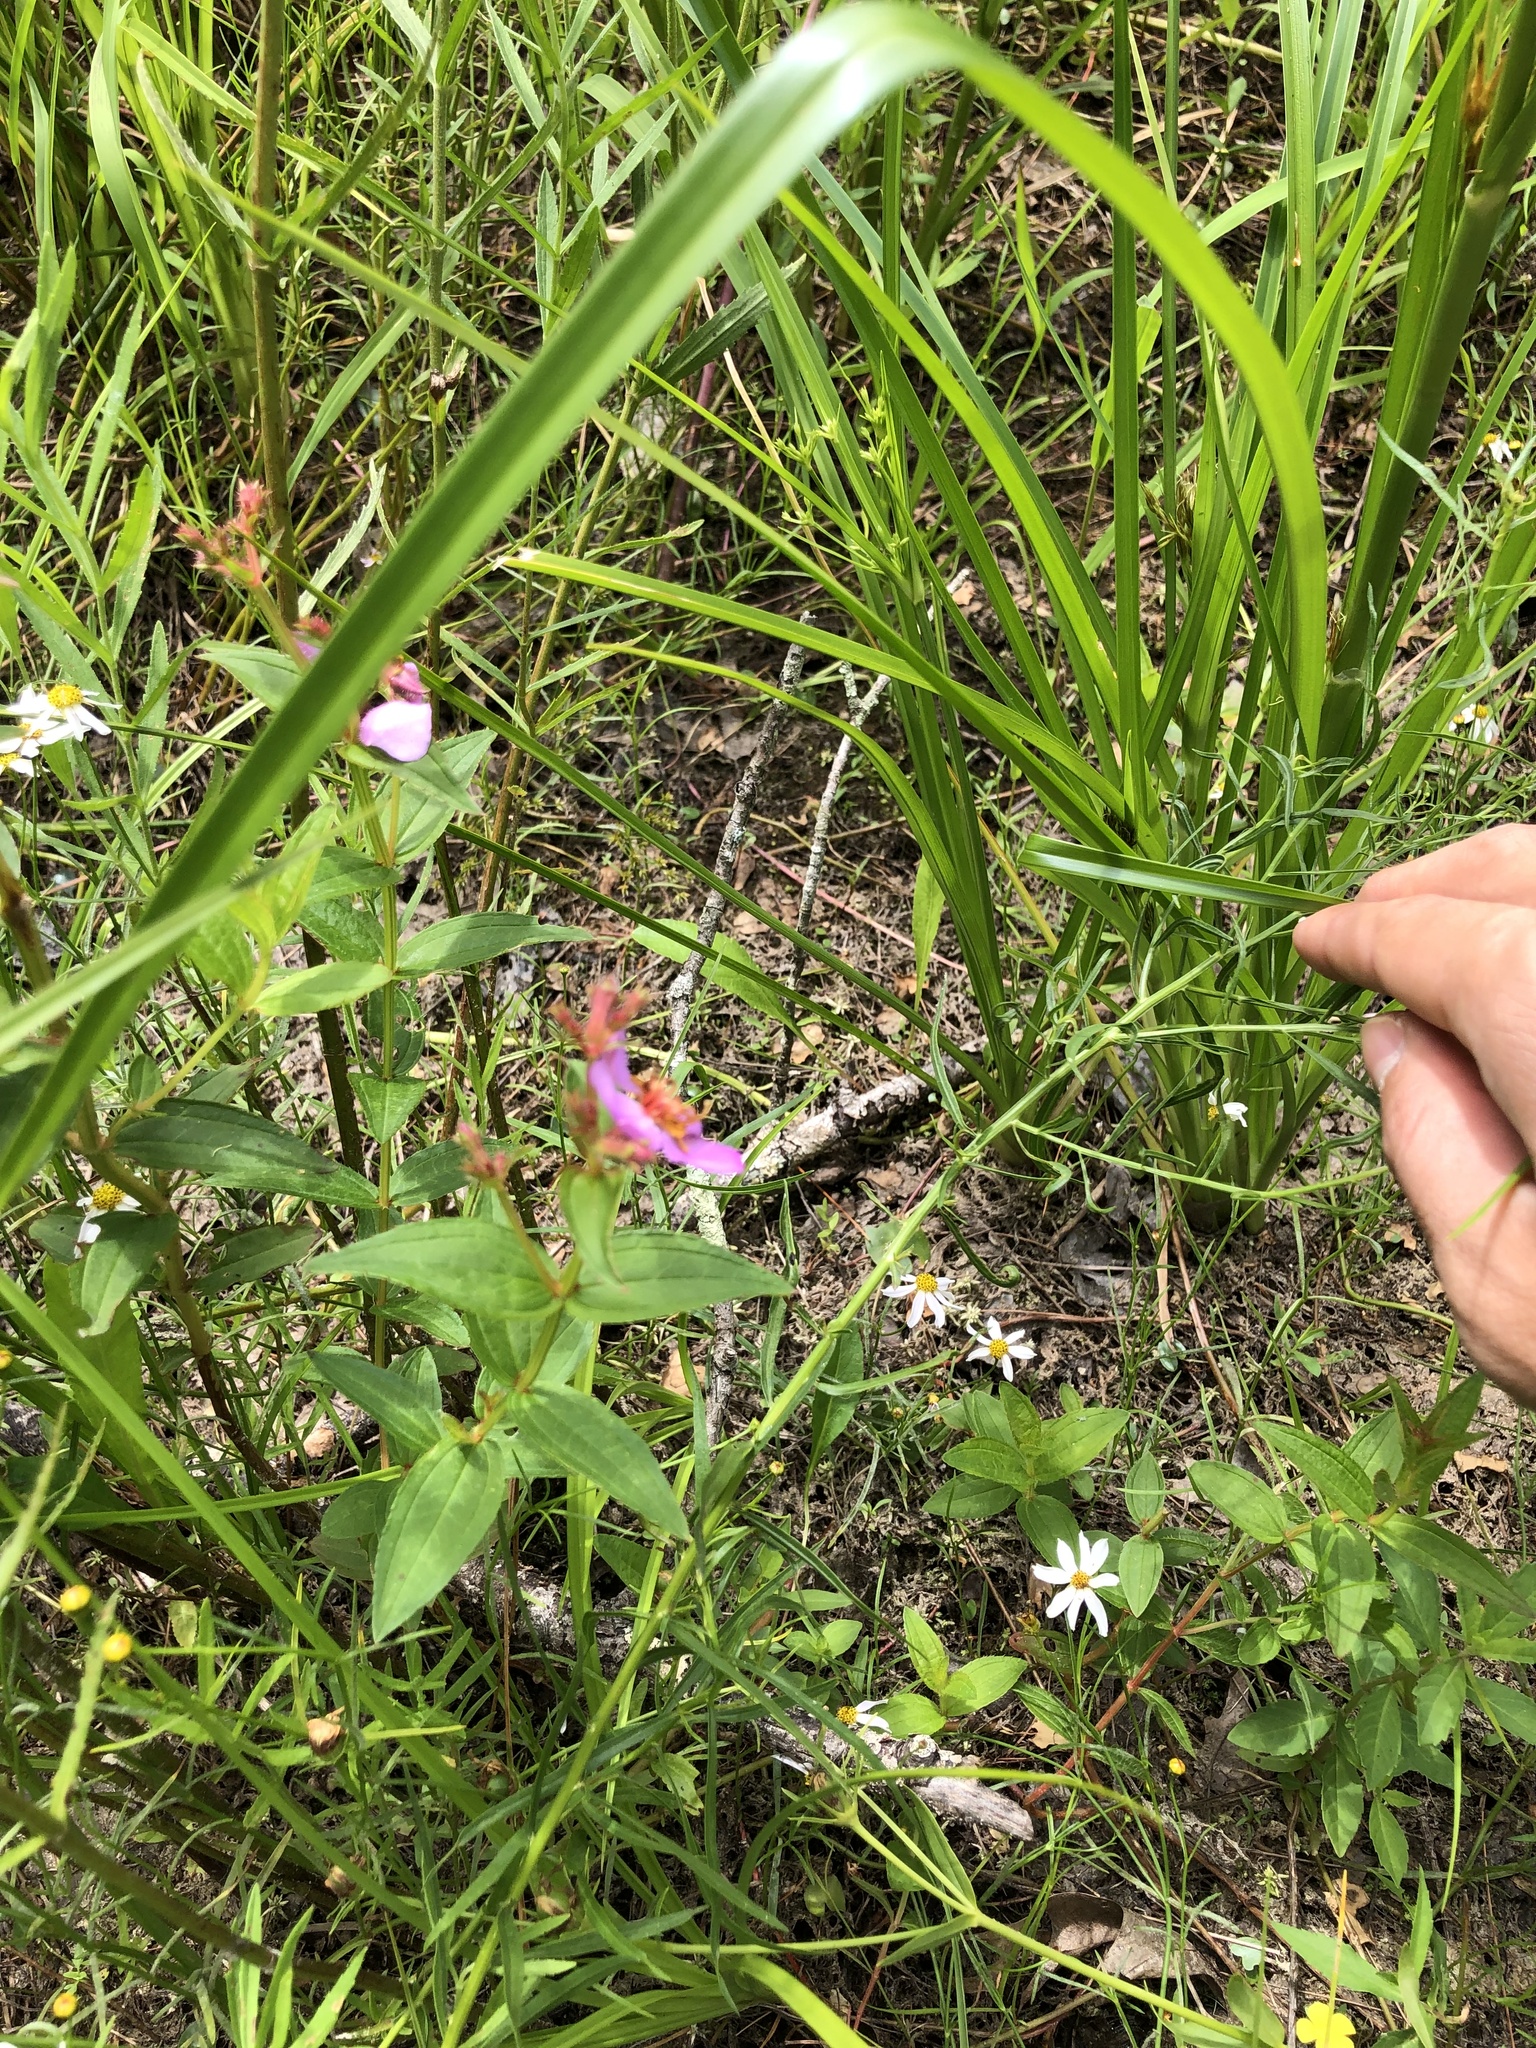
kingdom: Plantae
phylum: Tracheophyta
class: Magnoliopsida
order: Myrtales
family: Melastomataceae
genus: Rhexia
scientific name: Rhexia virginica
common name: Common meadow beauty
